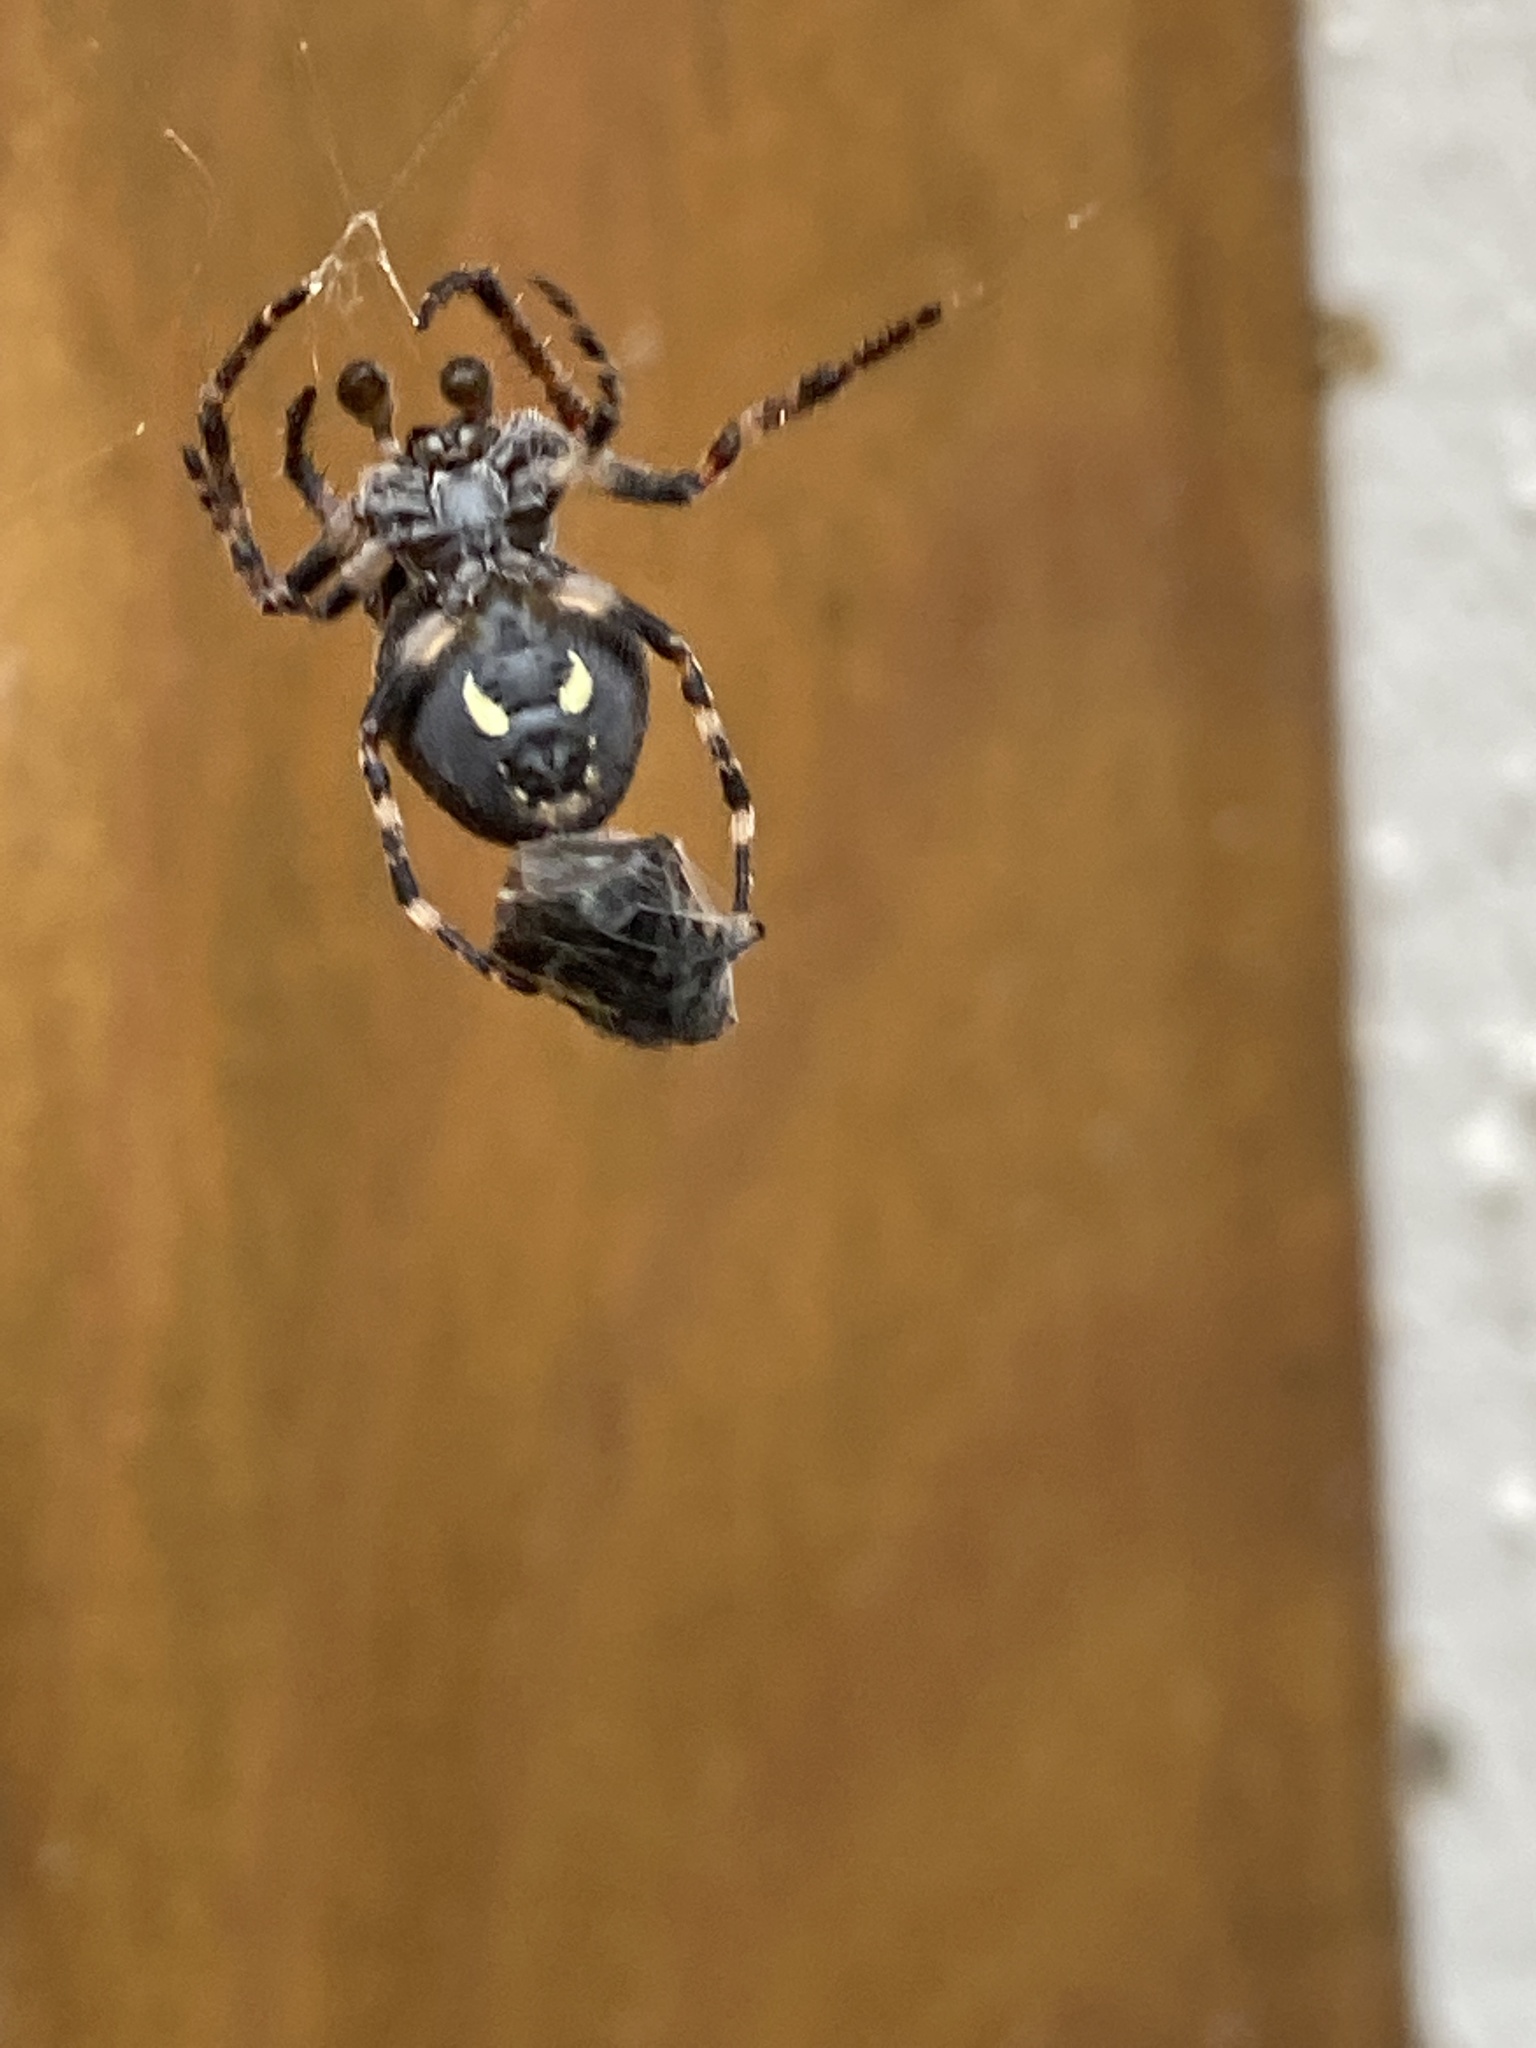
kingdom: Animalia
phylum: Arthropoda
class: Arachnida
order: Araneae
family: Araneidae
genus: Nuctenea
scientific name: Nuctenea umbratica
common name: Toad spider
